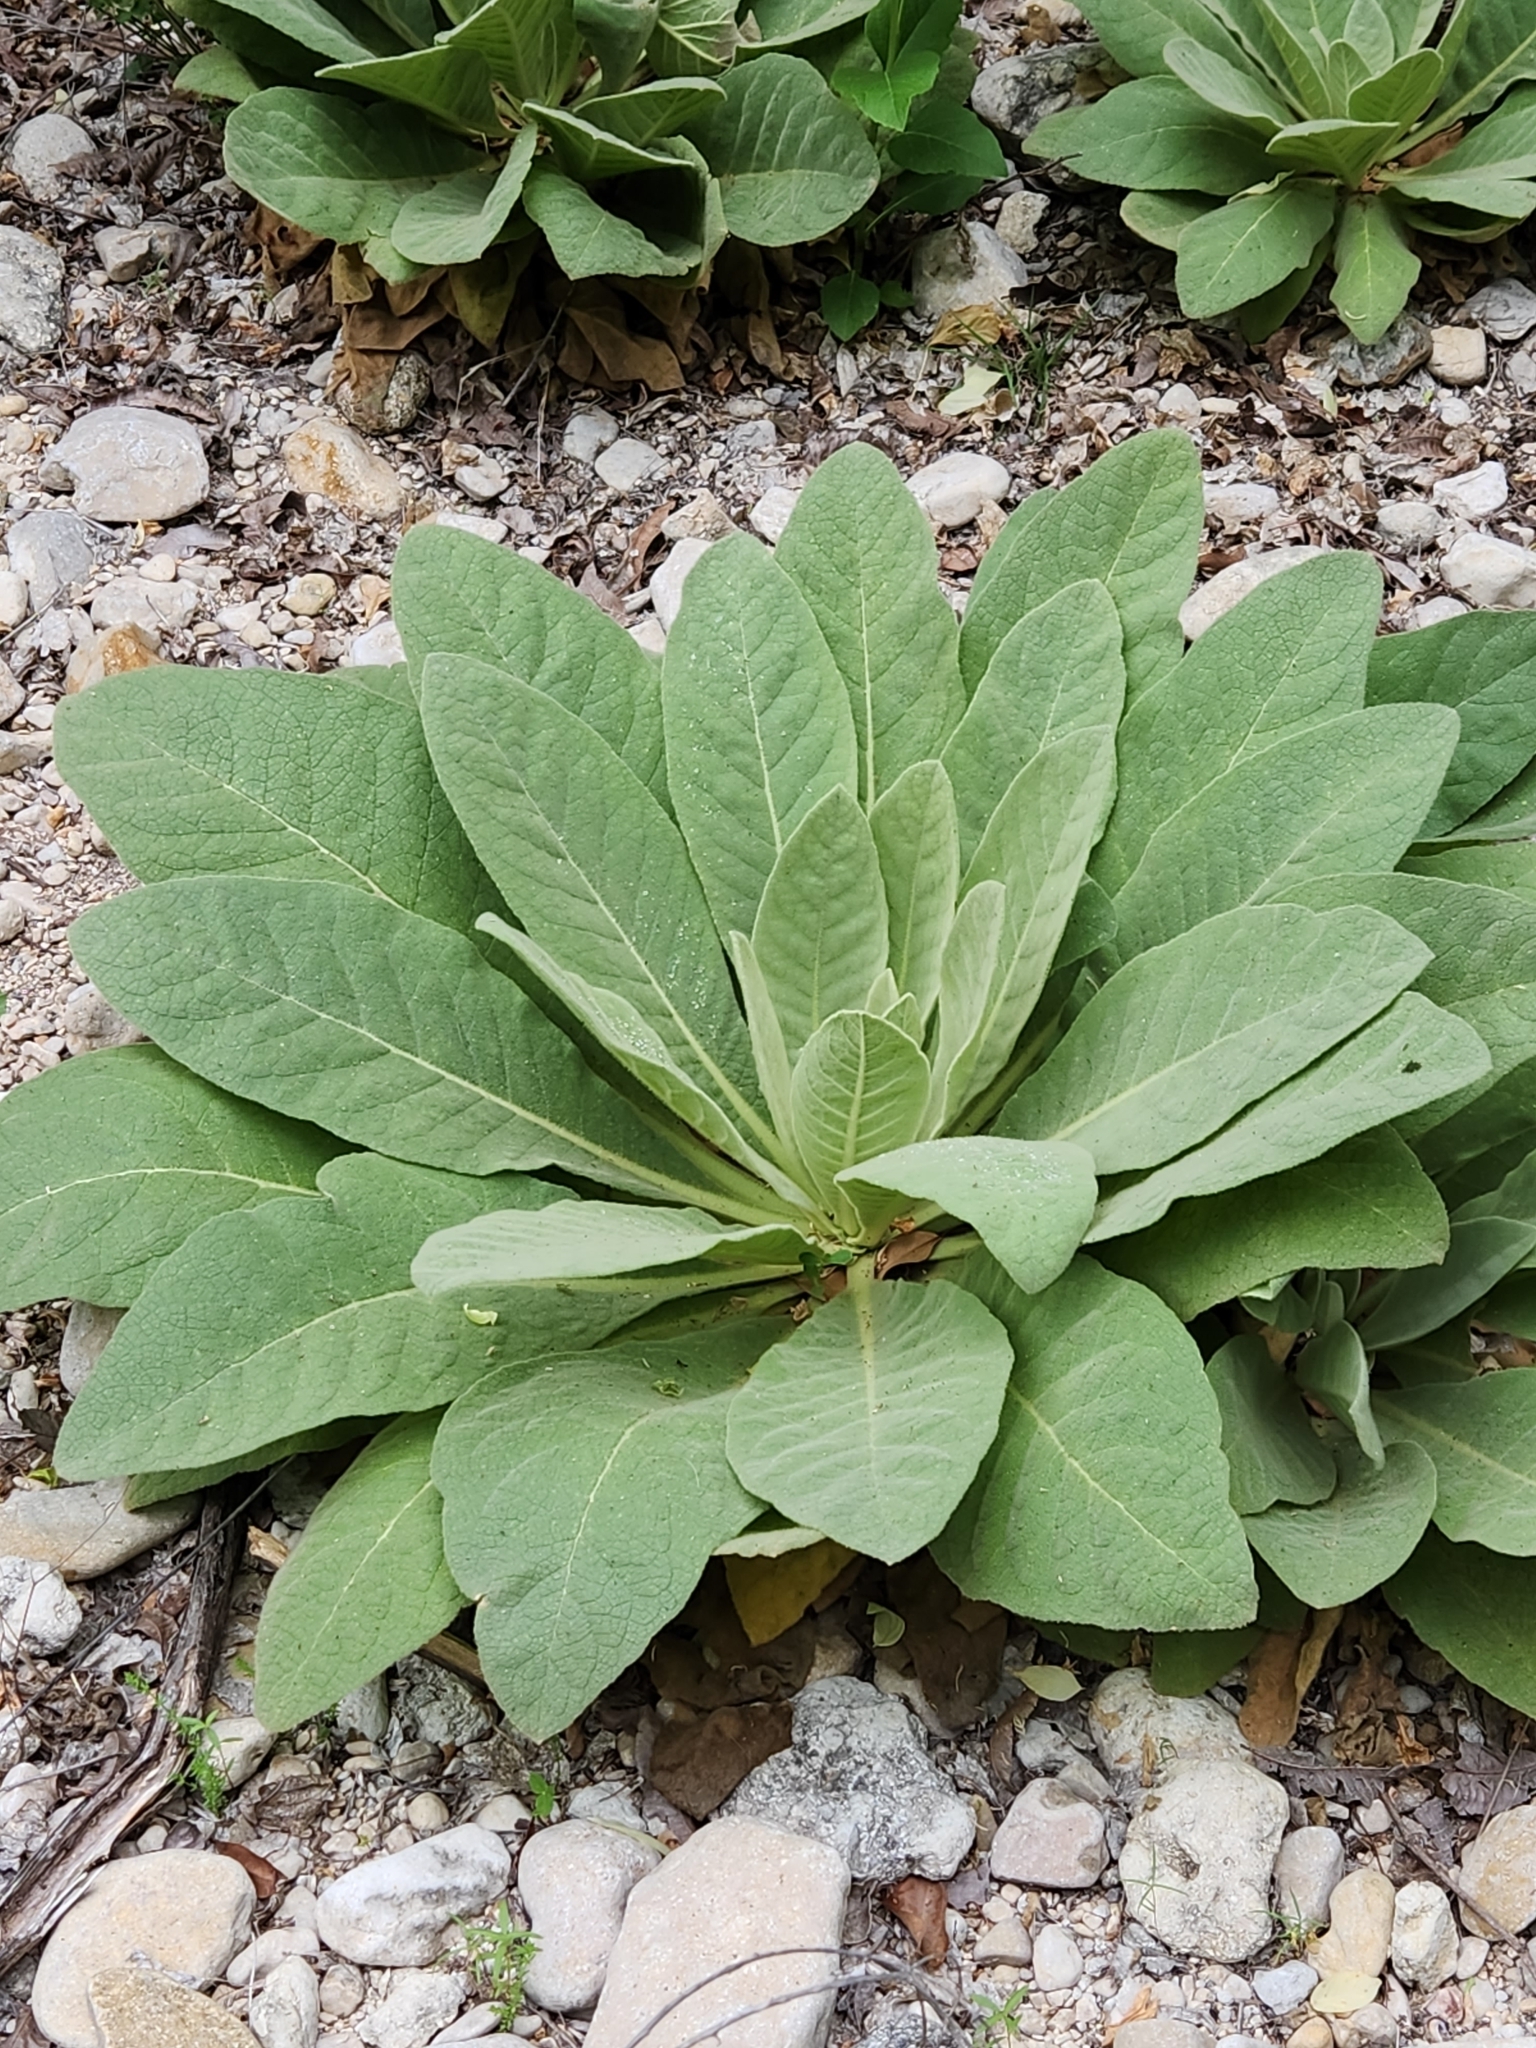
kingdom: Plantae
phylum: Tracheophyta
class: Magnoliopsida
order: Lamiales
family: Scrophulariaceae
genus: Verbascum
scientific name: Verbascum thapsus
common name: Common mullein
